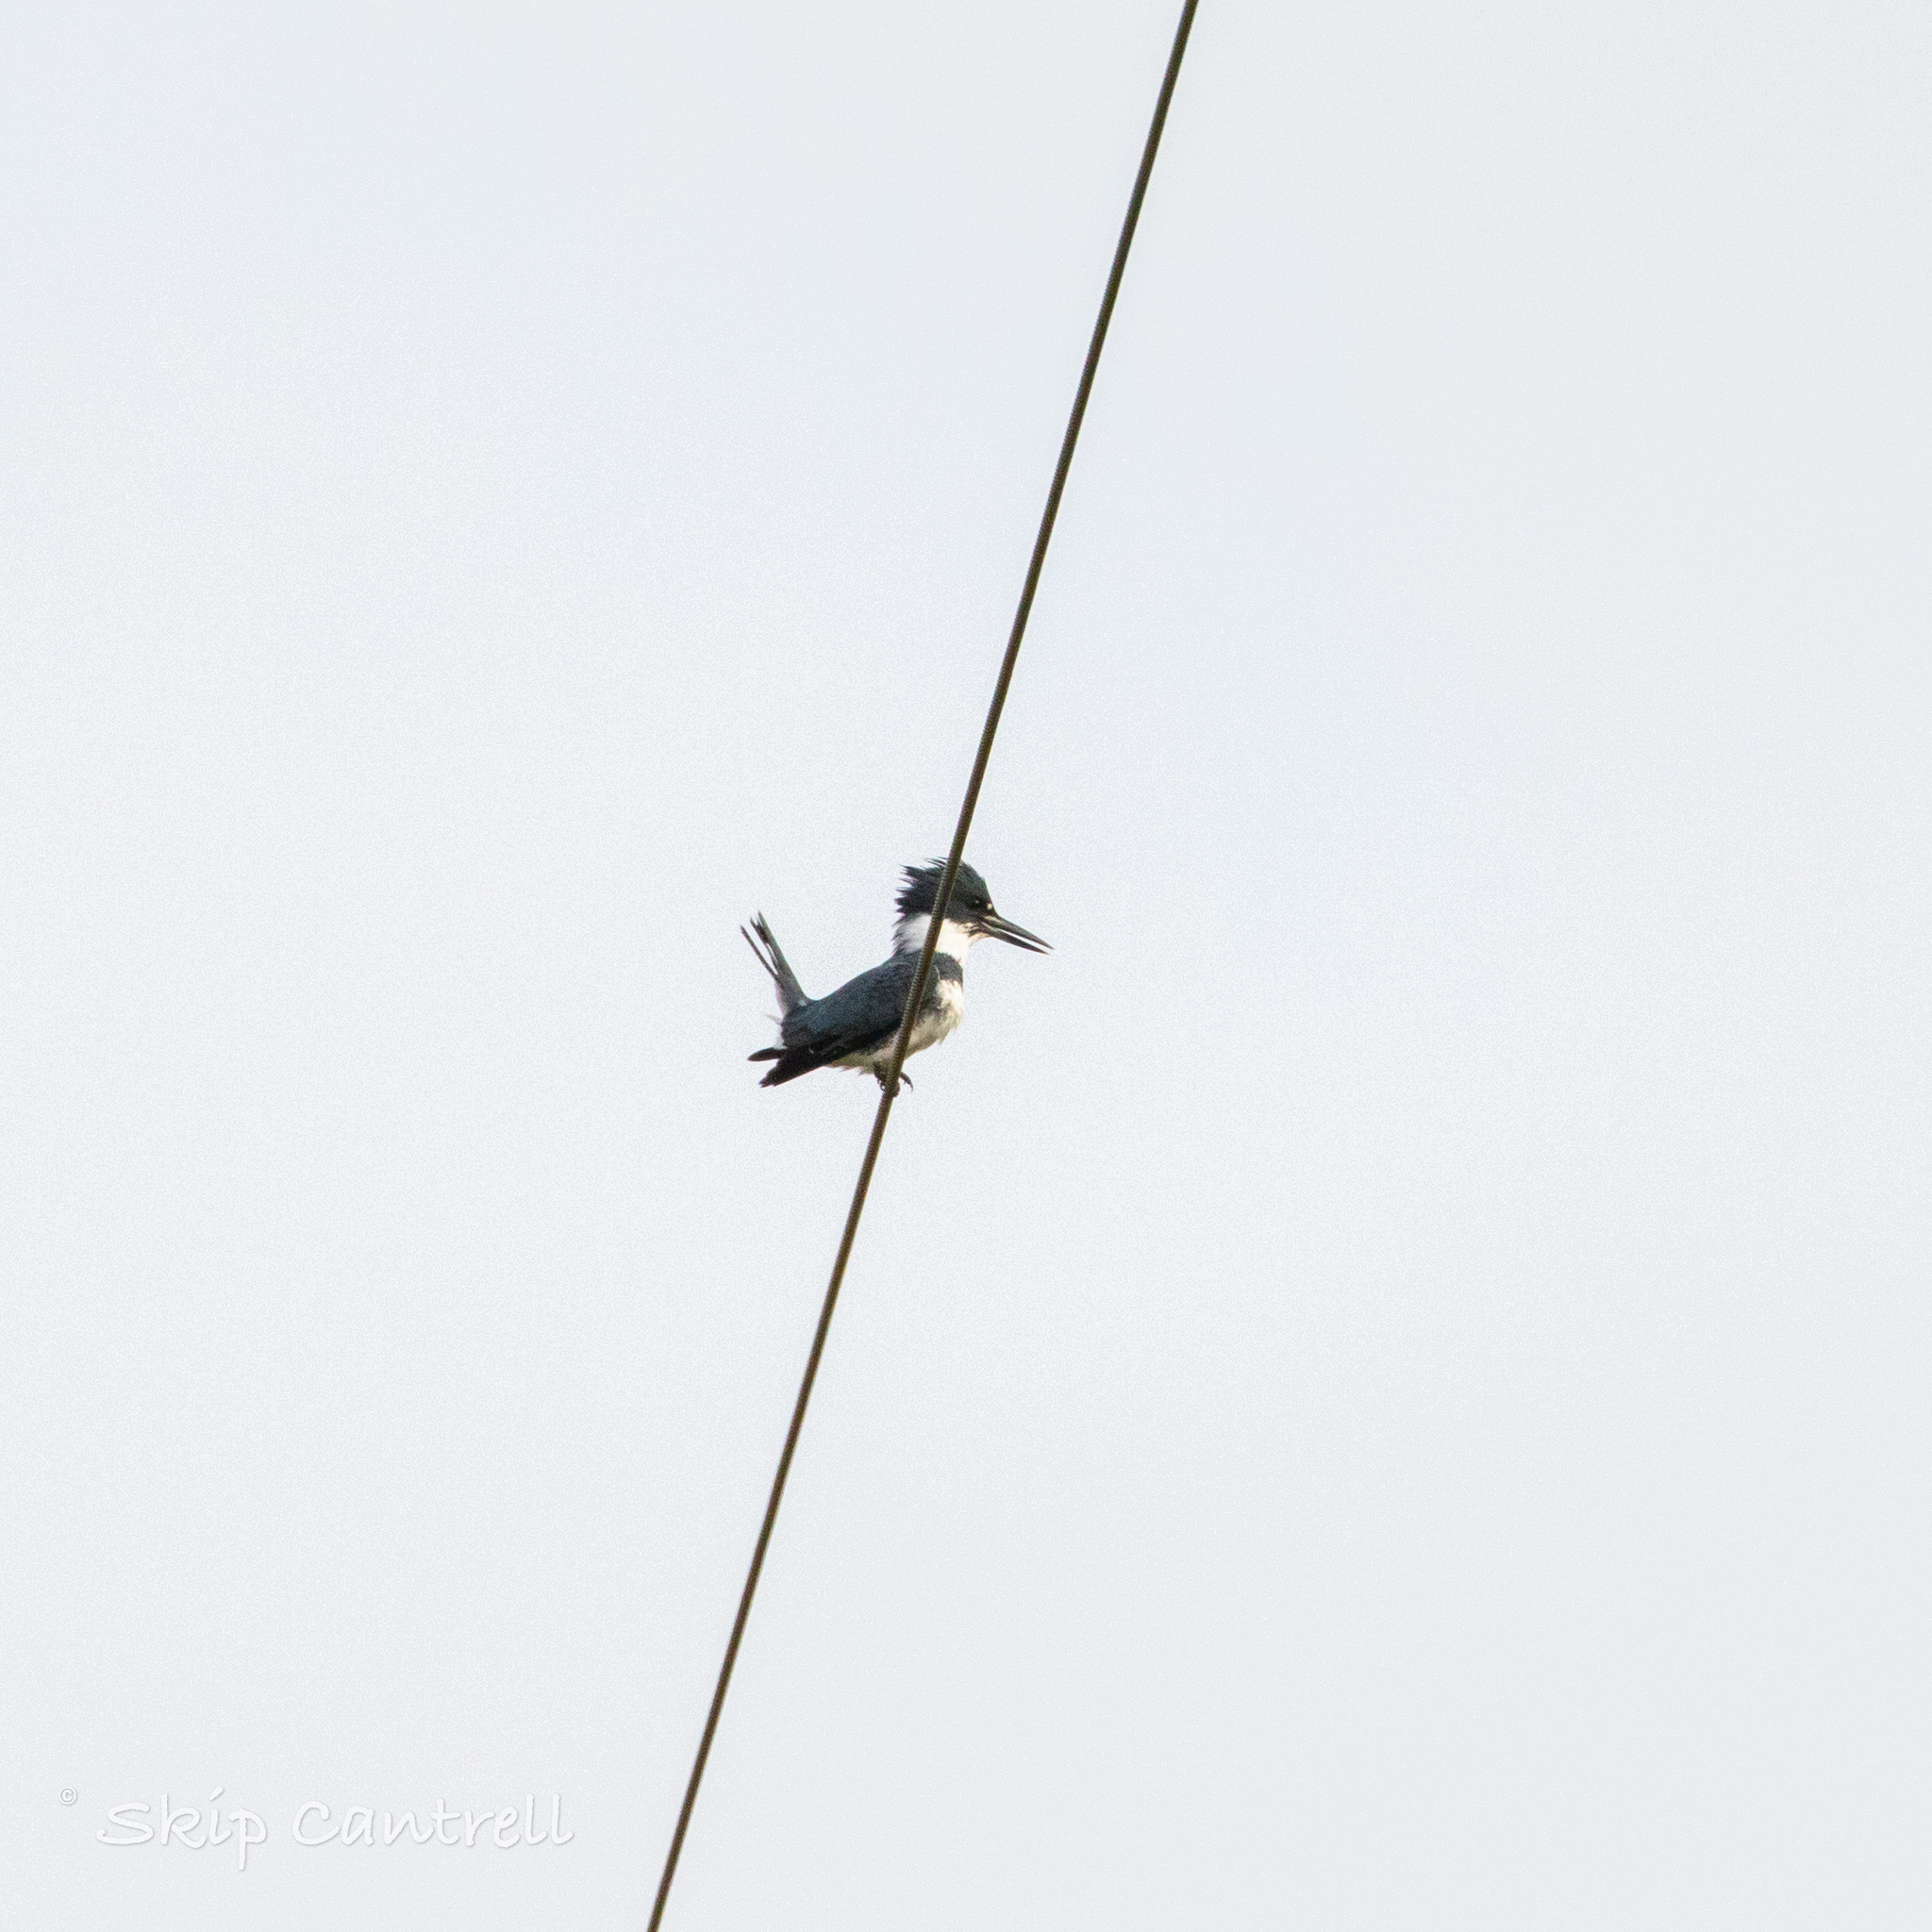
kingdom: Animalia
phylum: Chordata
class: Aves
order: Coraciiformes
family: Alcedinidae
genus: Megaceryle
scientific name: Megaceryle alcyon
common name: Belted kingfisher
